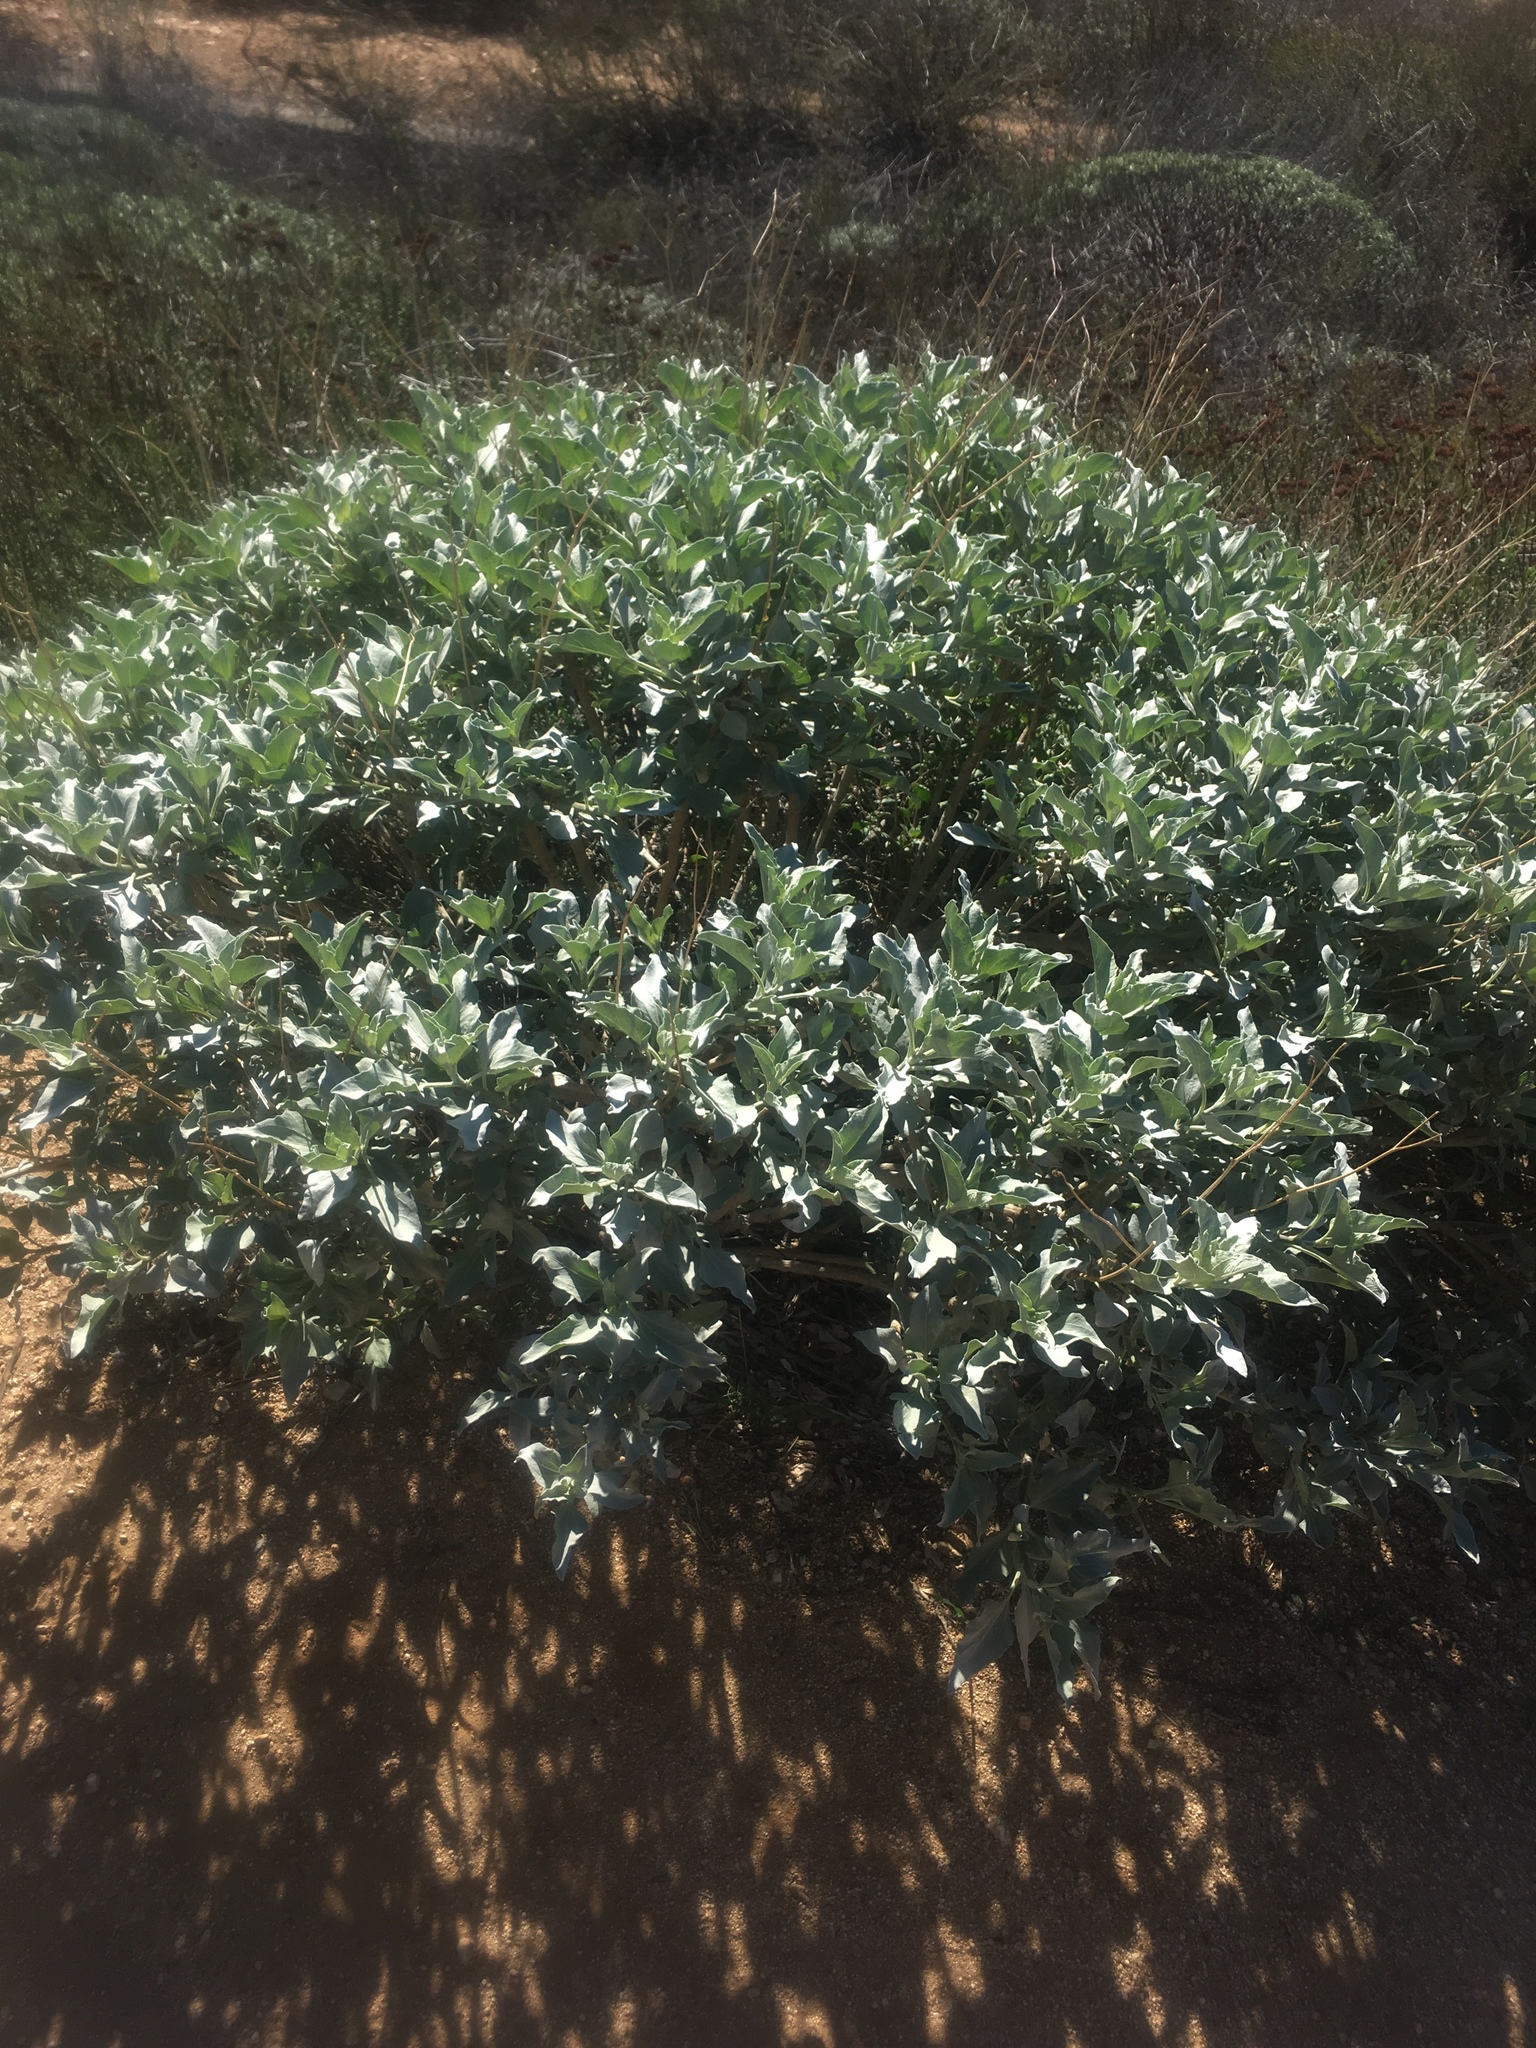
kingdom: Plantae
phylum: Tracheophyta
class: Magnoliopsida
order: Asterales
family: Asteraceae
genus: Encelia
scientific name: Encelia farinosa
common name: Brittlebush
